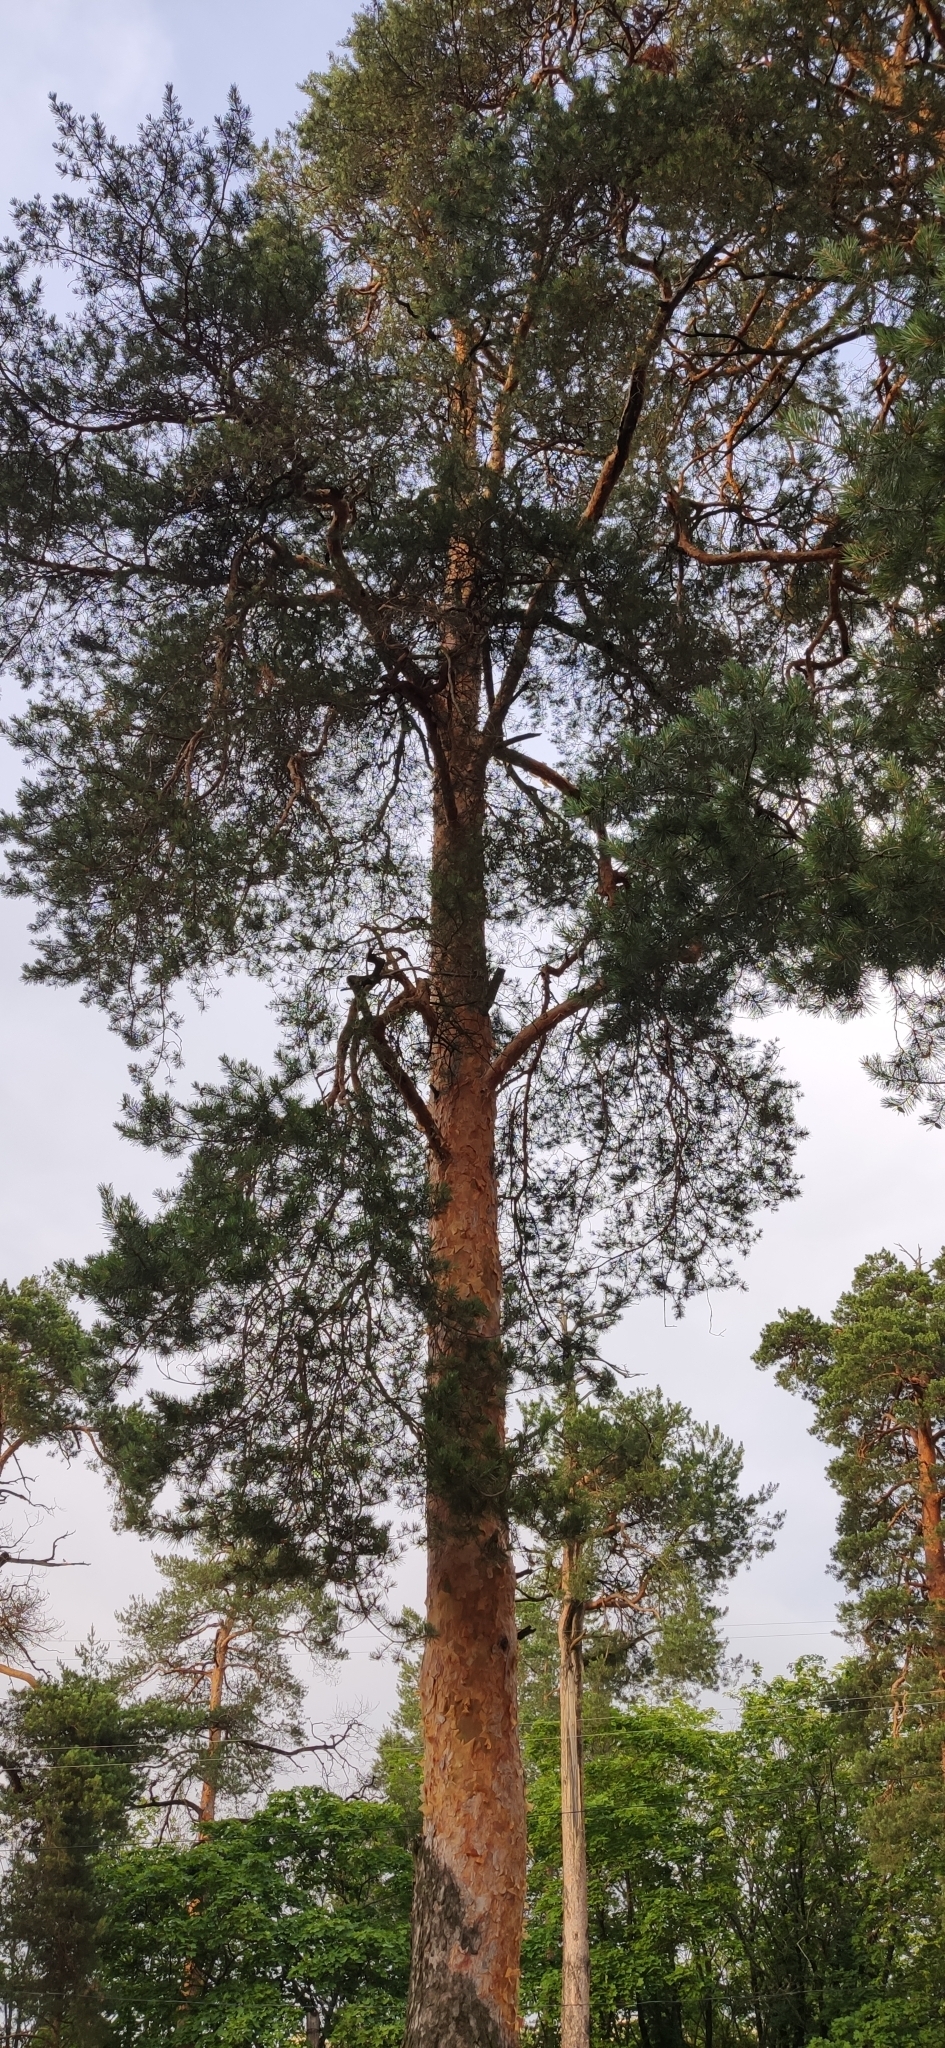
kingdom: Plantae
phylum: Tracheophyta
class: Pinopsida
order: Pinales
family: Pinaceae
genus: Pinus
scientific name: Pinus sylvestris
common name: Scots pine
